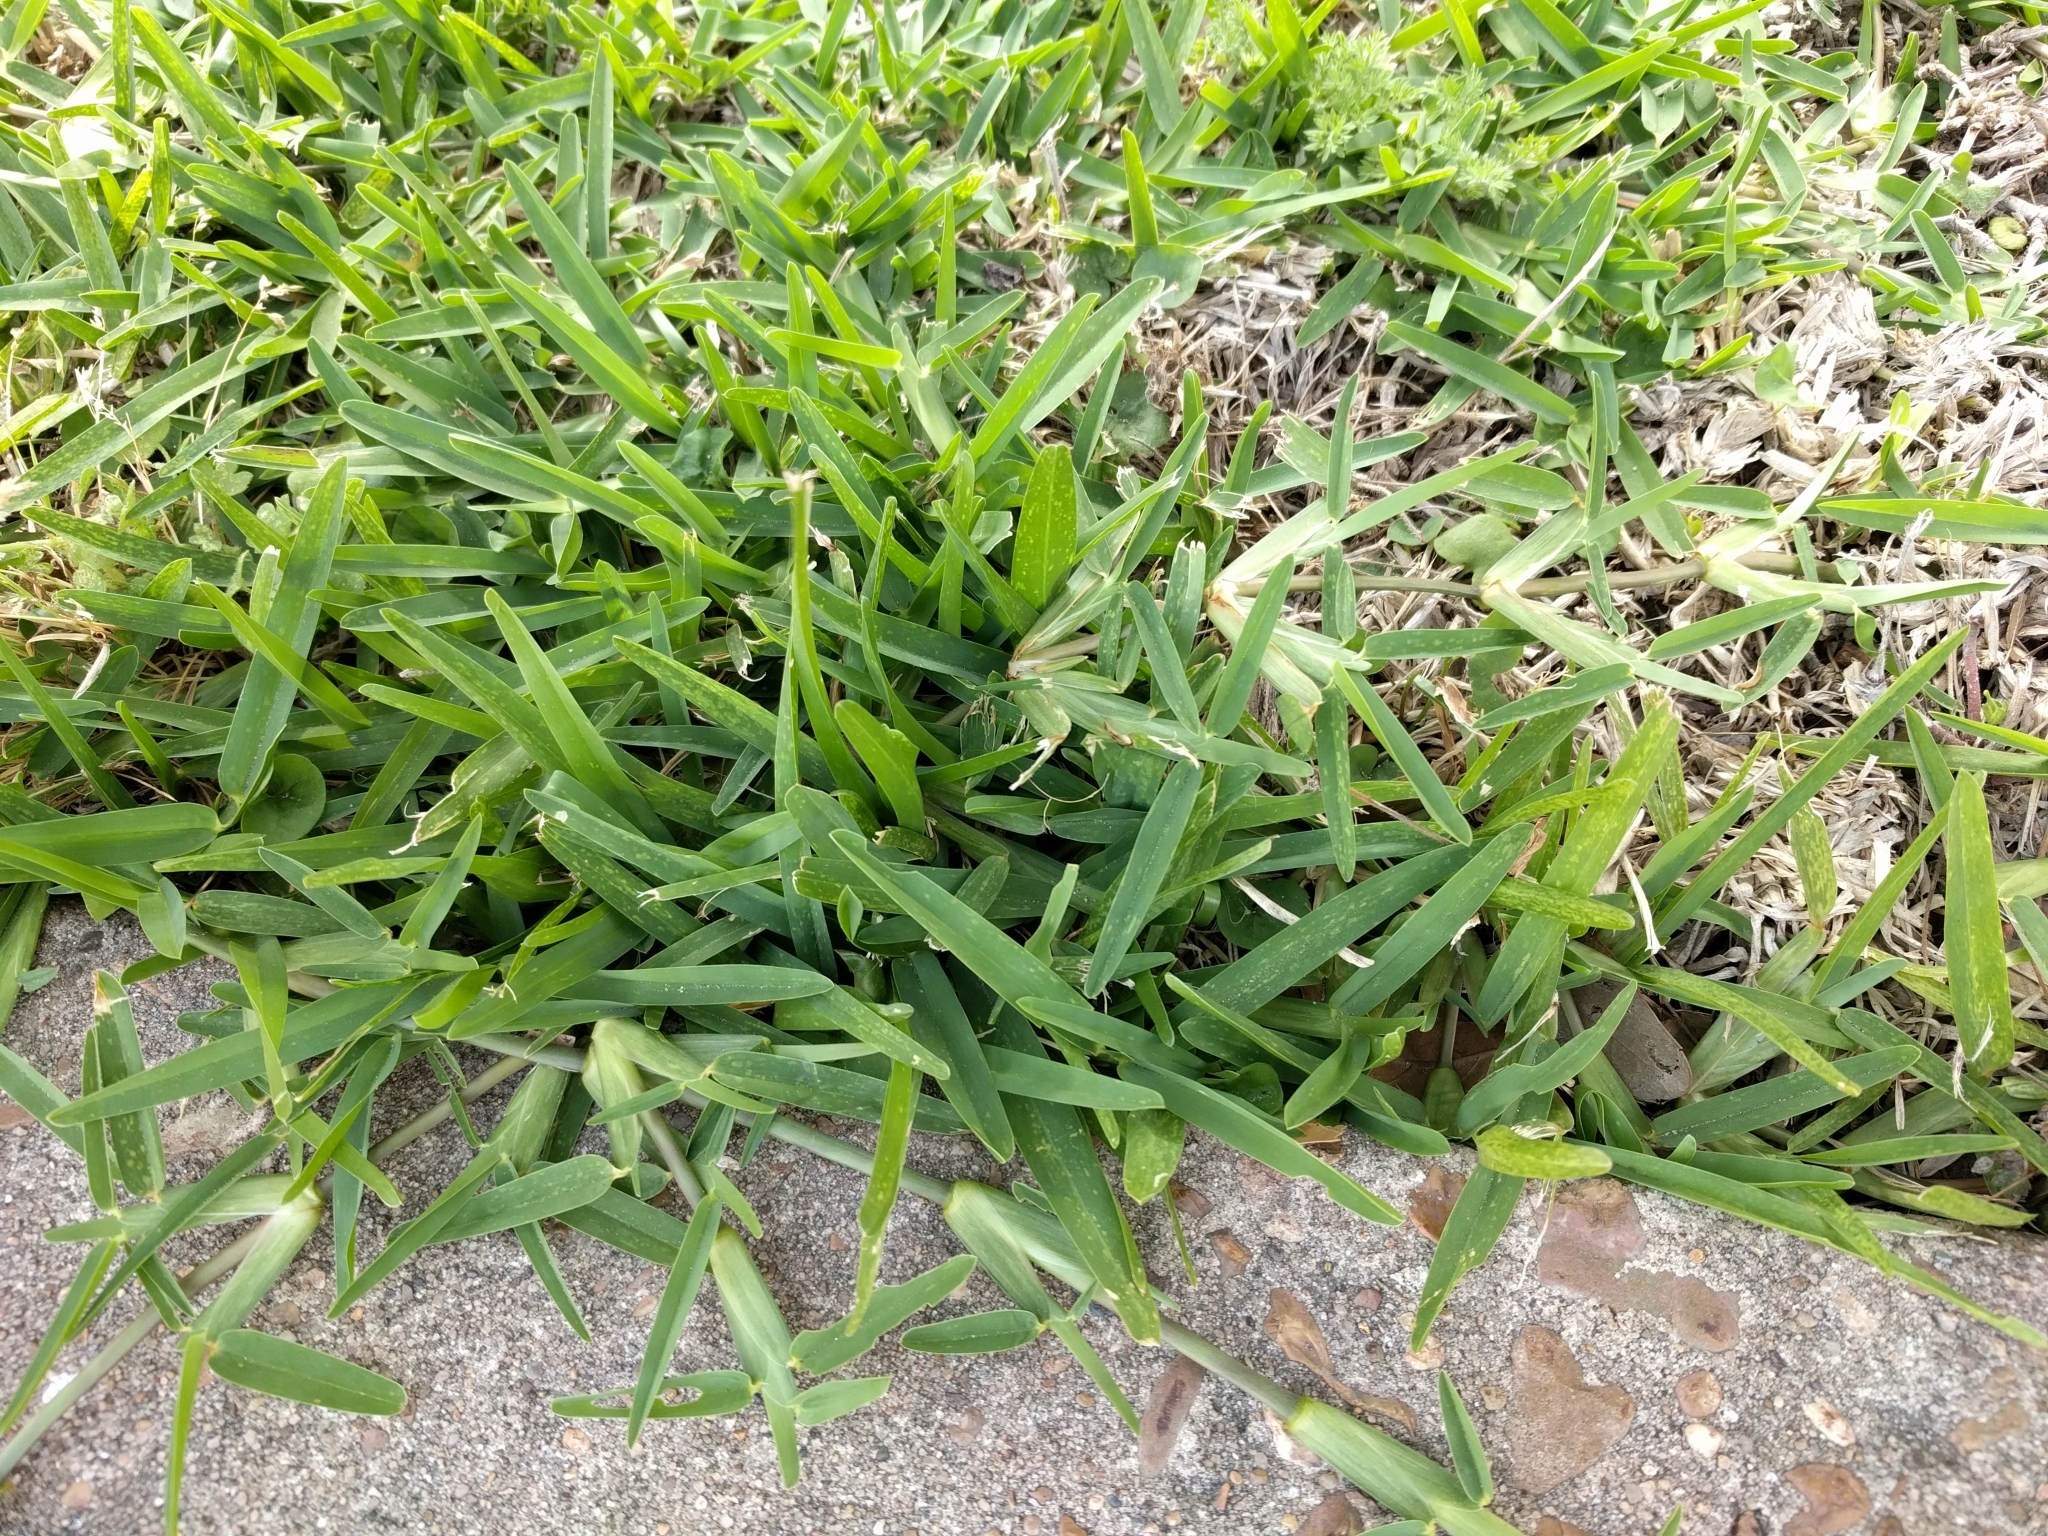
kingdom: Plantae
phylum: Tracheophyta
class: Liliopsida
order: Poales
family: Poaceae
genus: Stenotaphrum
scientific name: Stenotaphrum secundatum
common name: St. augustine grass
